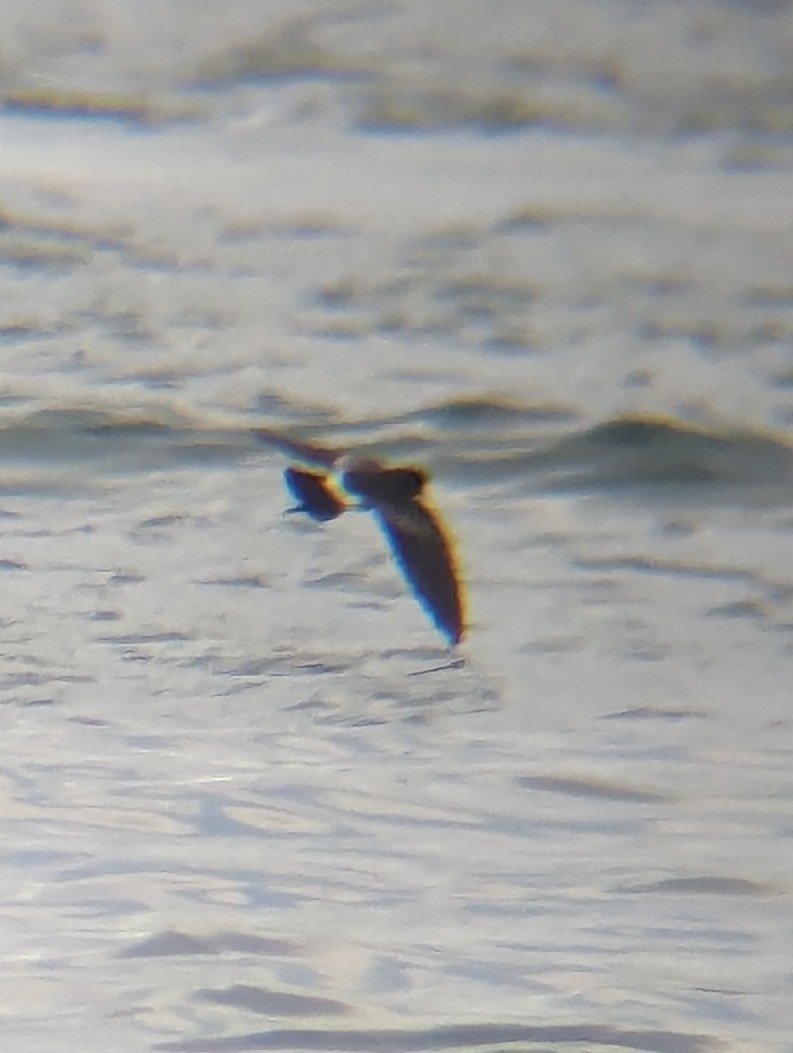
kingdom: Animalia
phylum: Chordata
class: Aves
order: Procellariiformes
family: Hydrobatidae
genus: Oceanites
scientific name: Oceanites gracilis
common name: Elliot's storm-petrel
